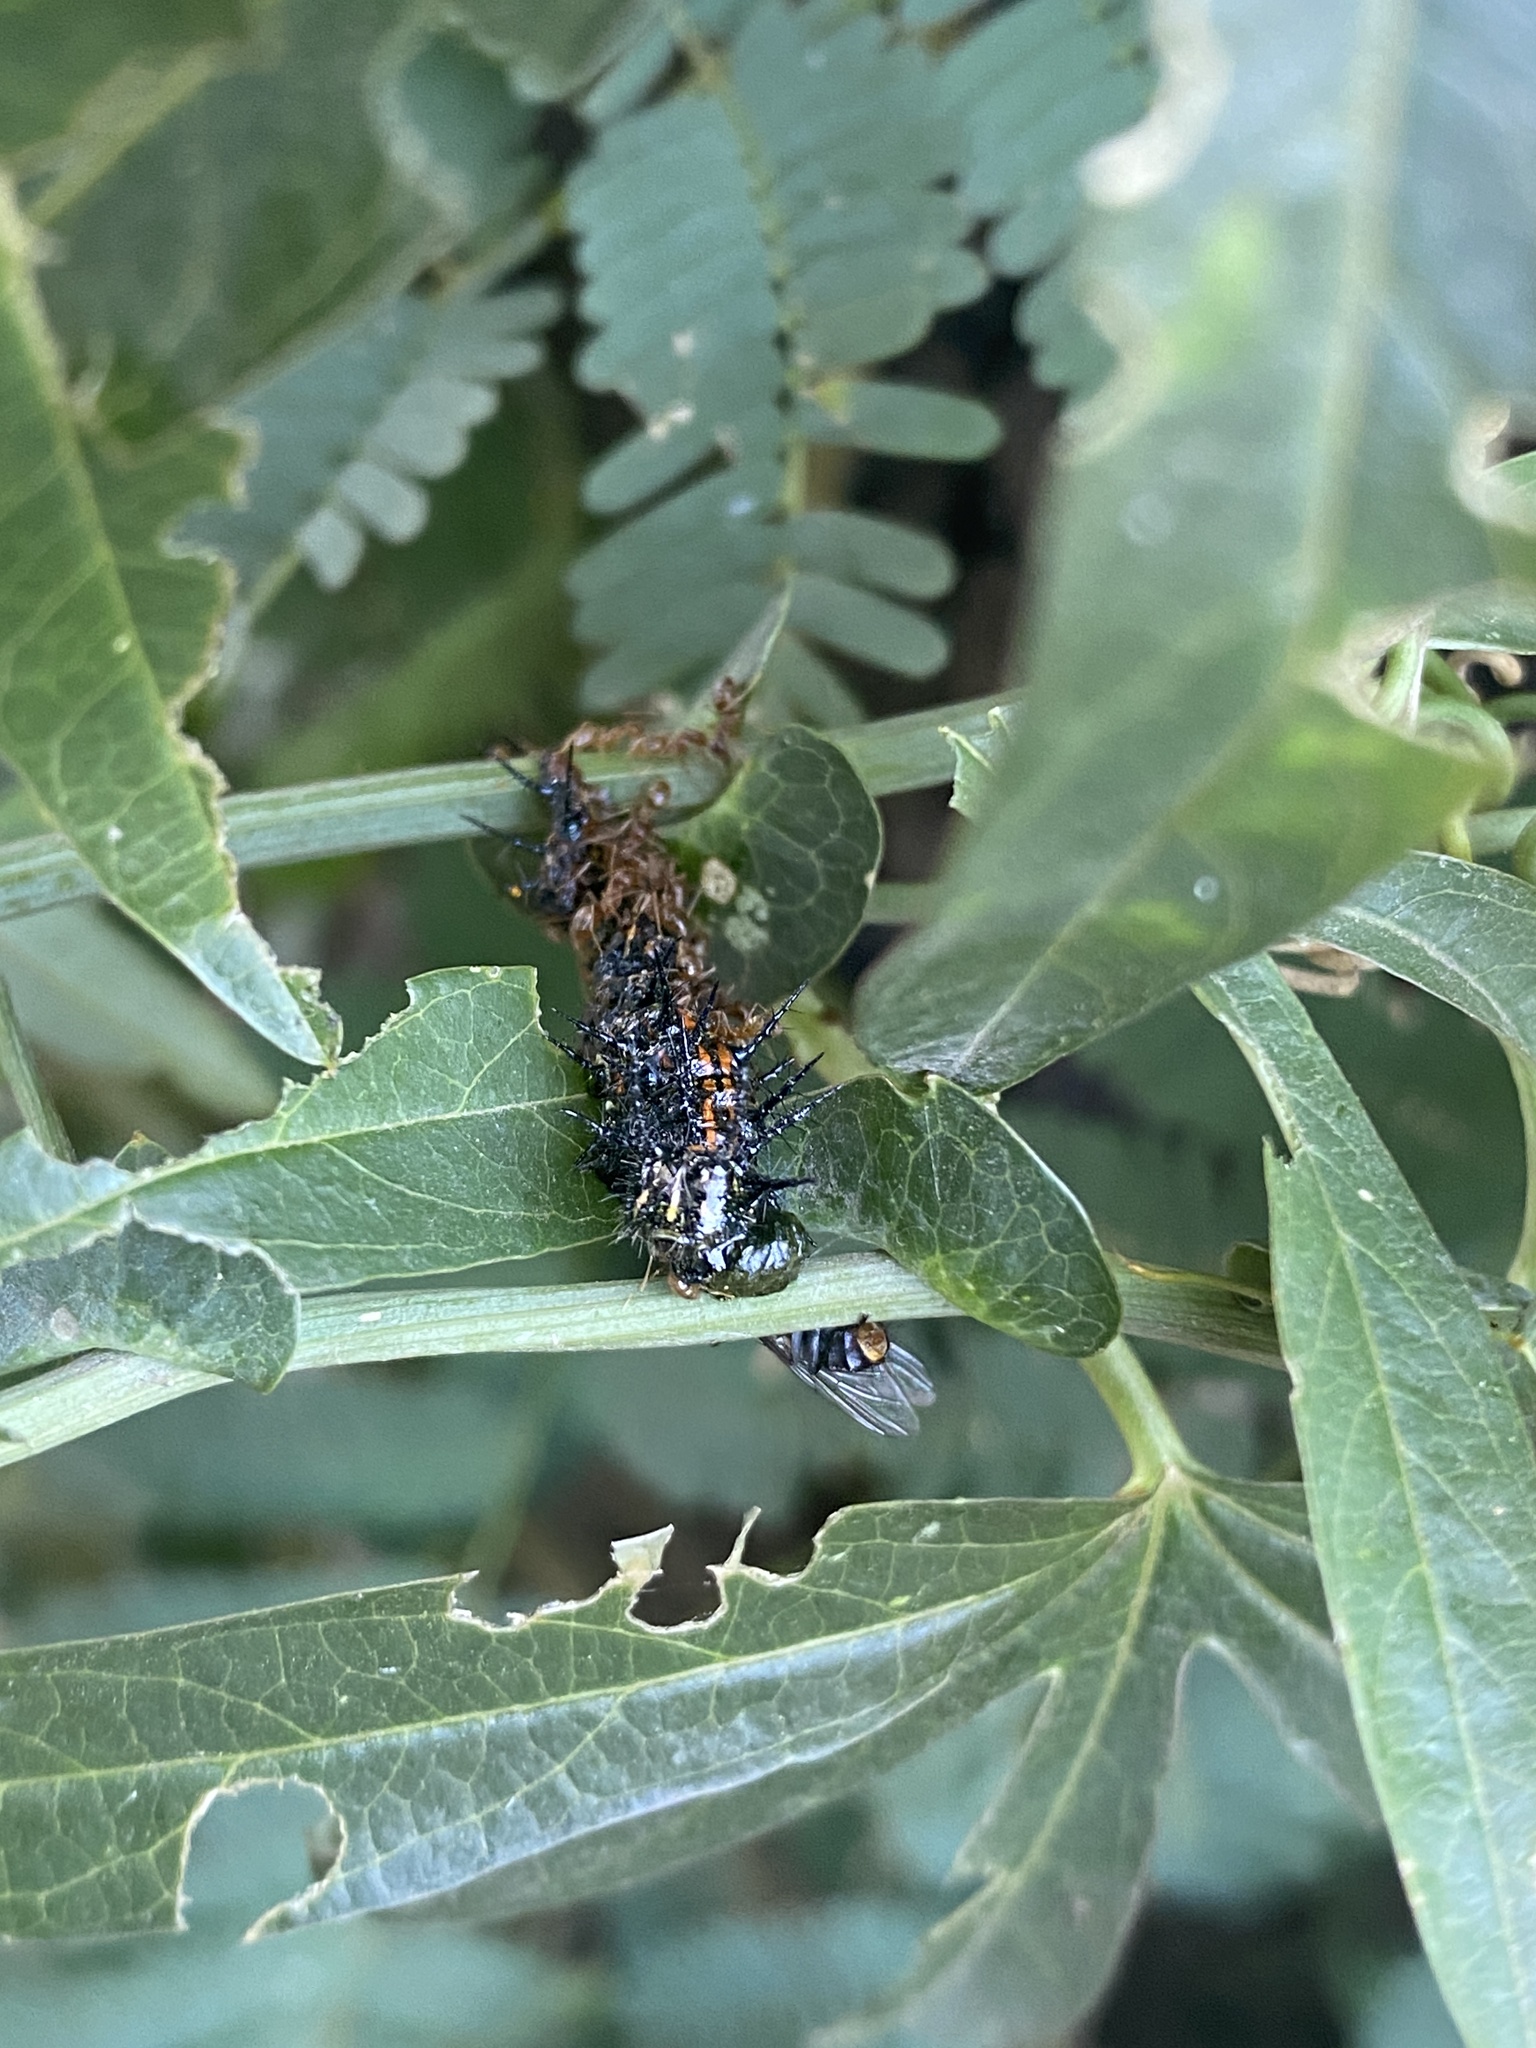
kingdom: Animalia
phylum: Arthropoda
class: Insecta
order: Lepidoptera
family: Nymphalidae
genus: Dione
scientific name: Dione vanillae
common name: Gulf fritillary
